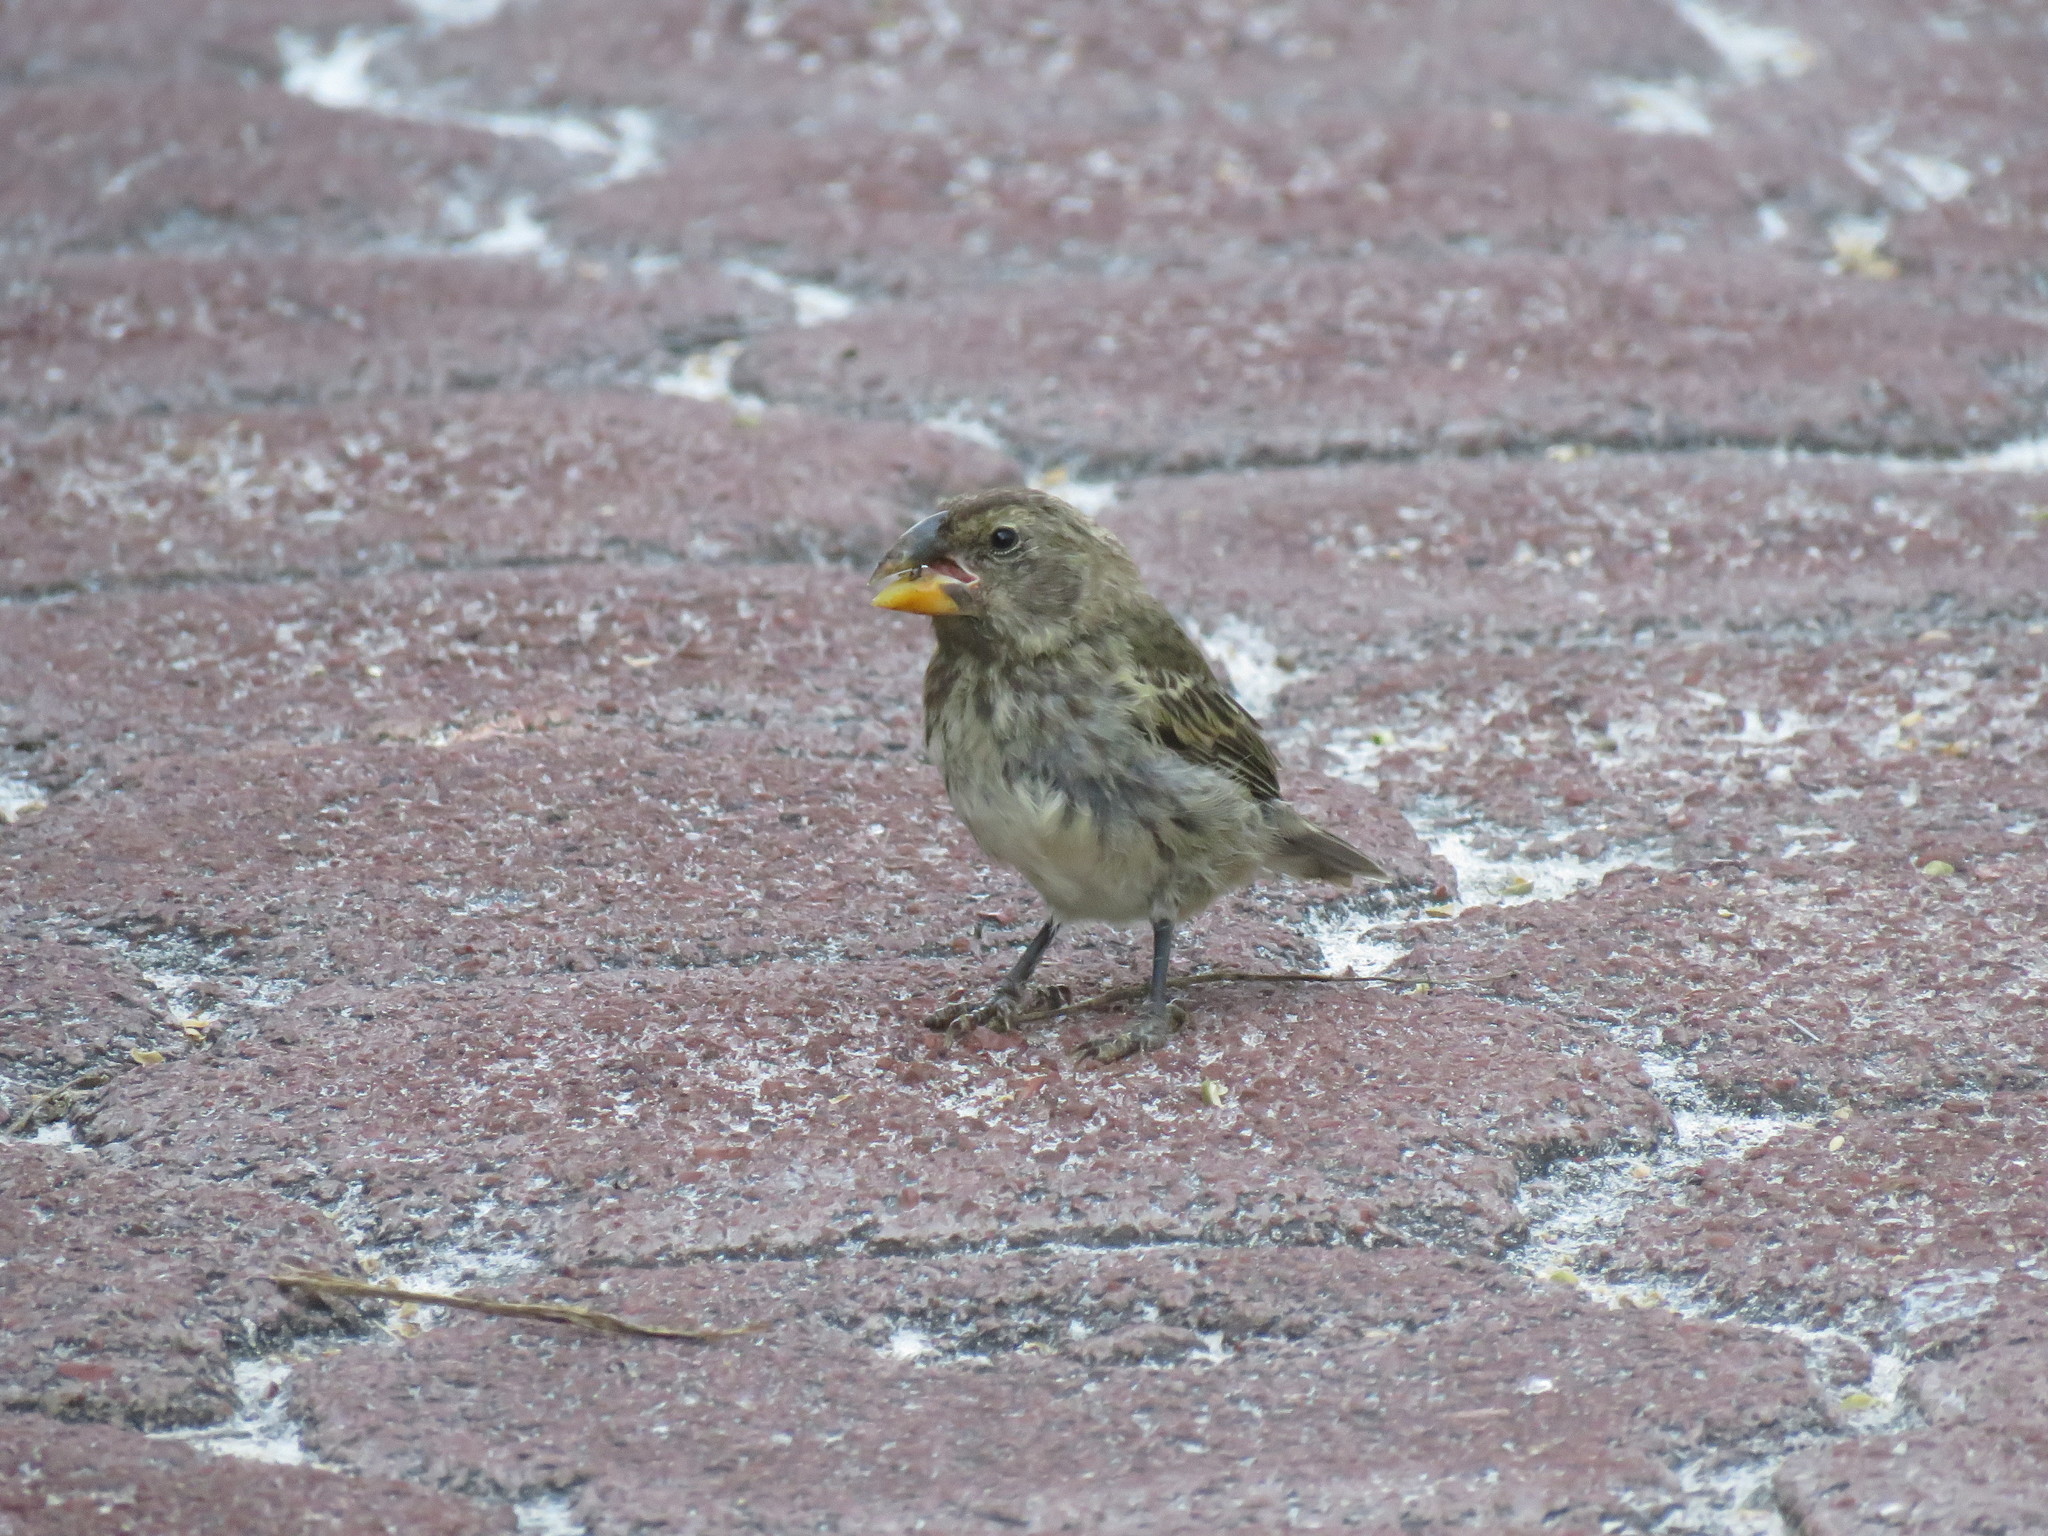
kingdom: Animalia
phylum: Chordata
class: Aves
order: Passeriformes
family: Thraupidae
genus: Geospiza
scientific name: Geospiza fortis
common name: Medium ground finch
